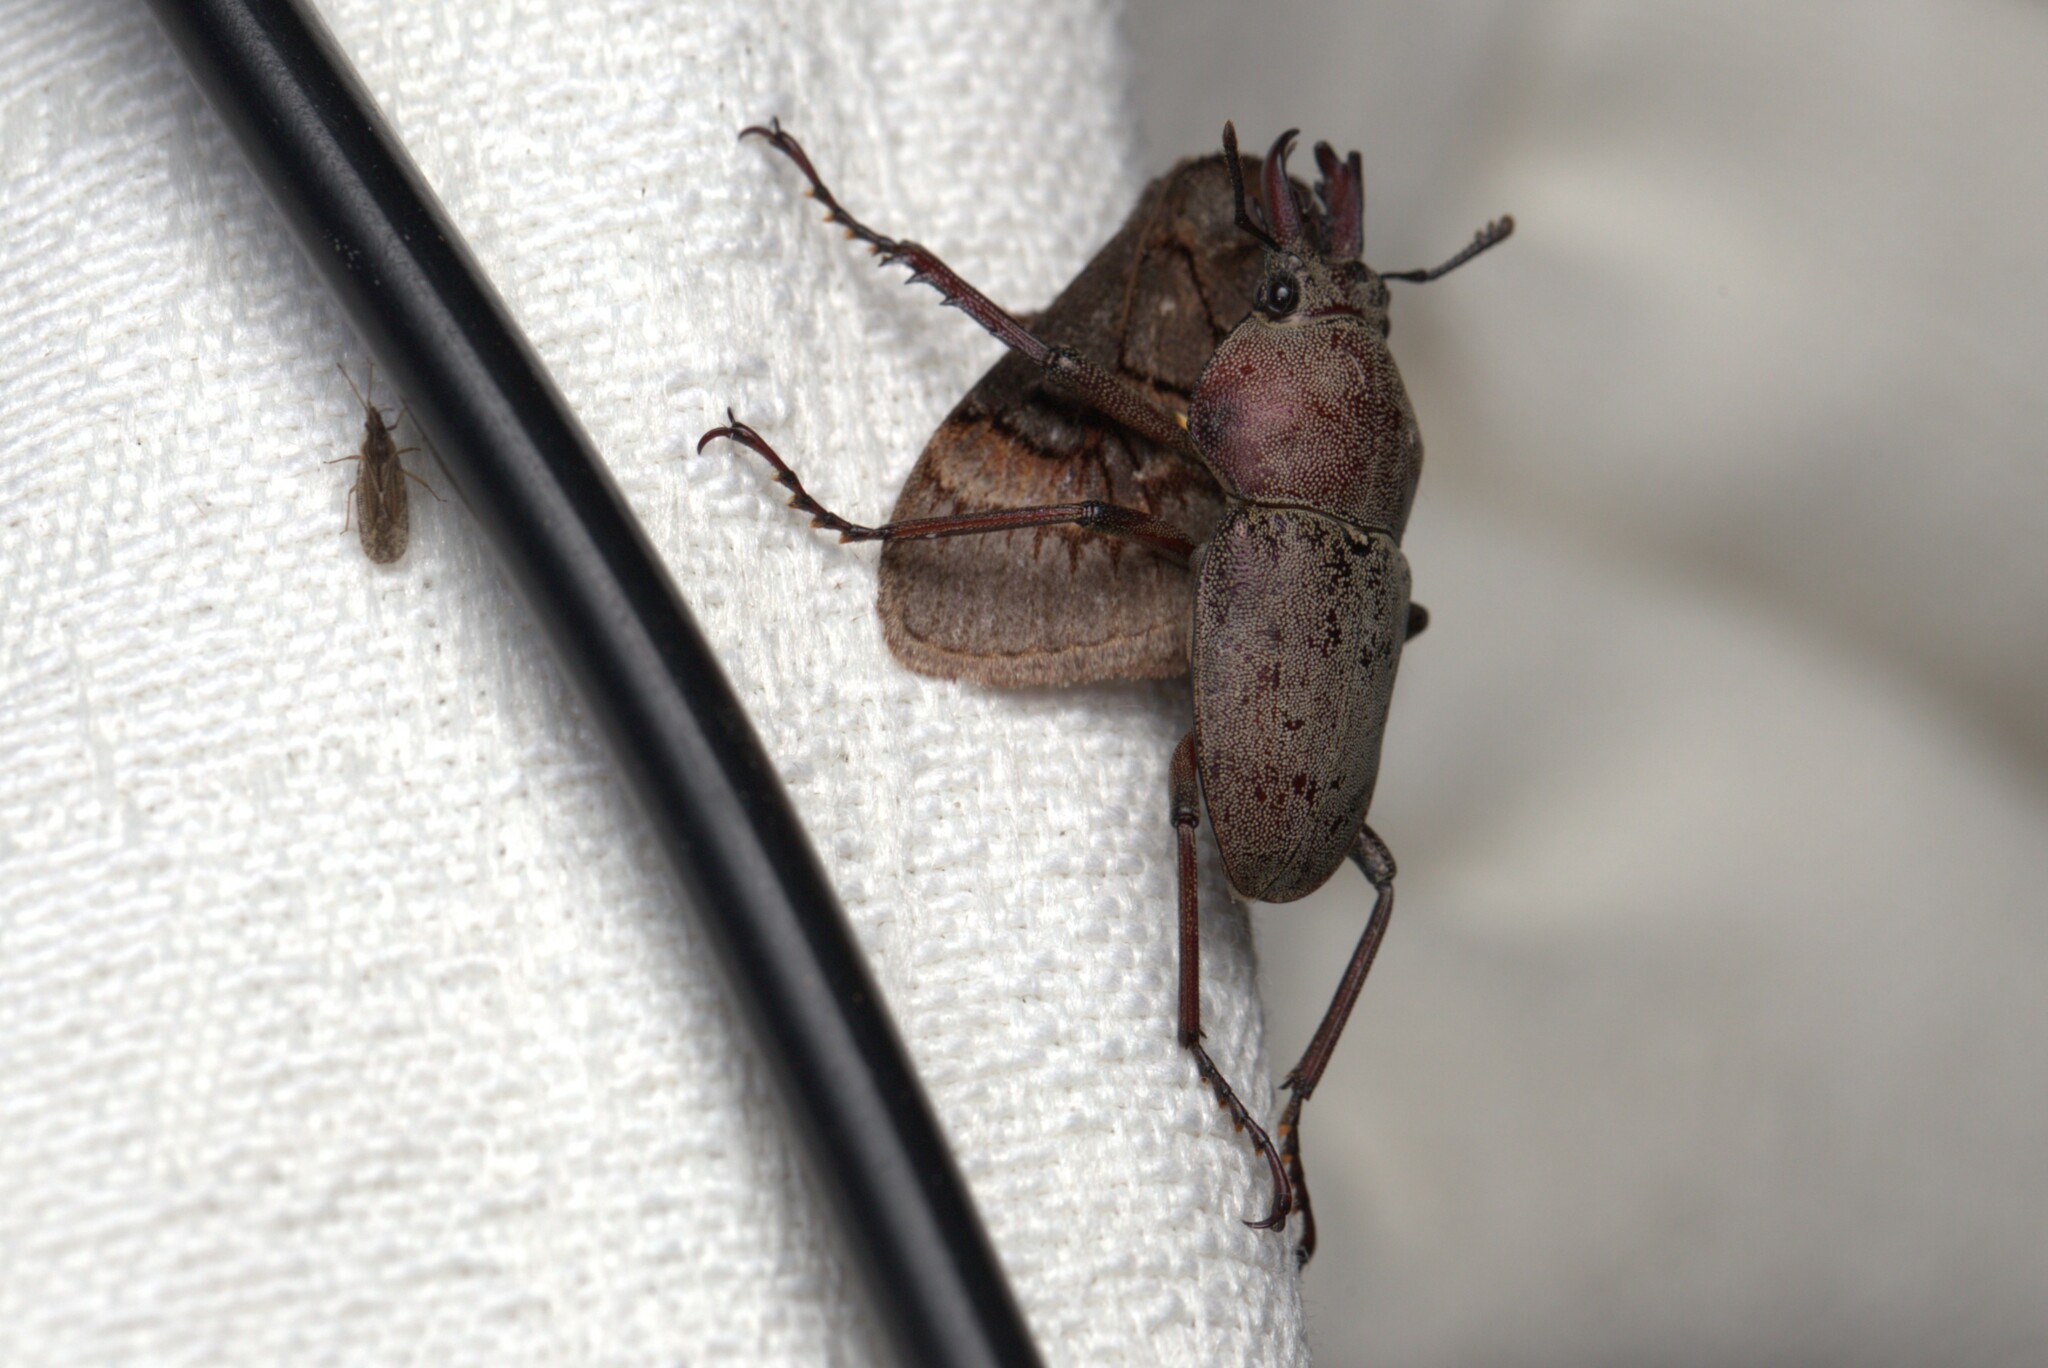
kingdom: Animalia
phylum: Arthropoda
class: Insecta
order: Coleoptera
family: Lucanidae
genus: Cacostomus
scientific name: Cacostomus squamosus
